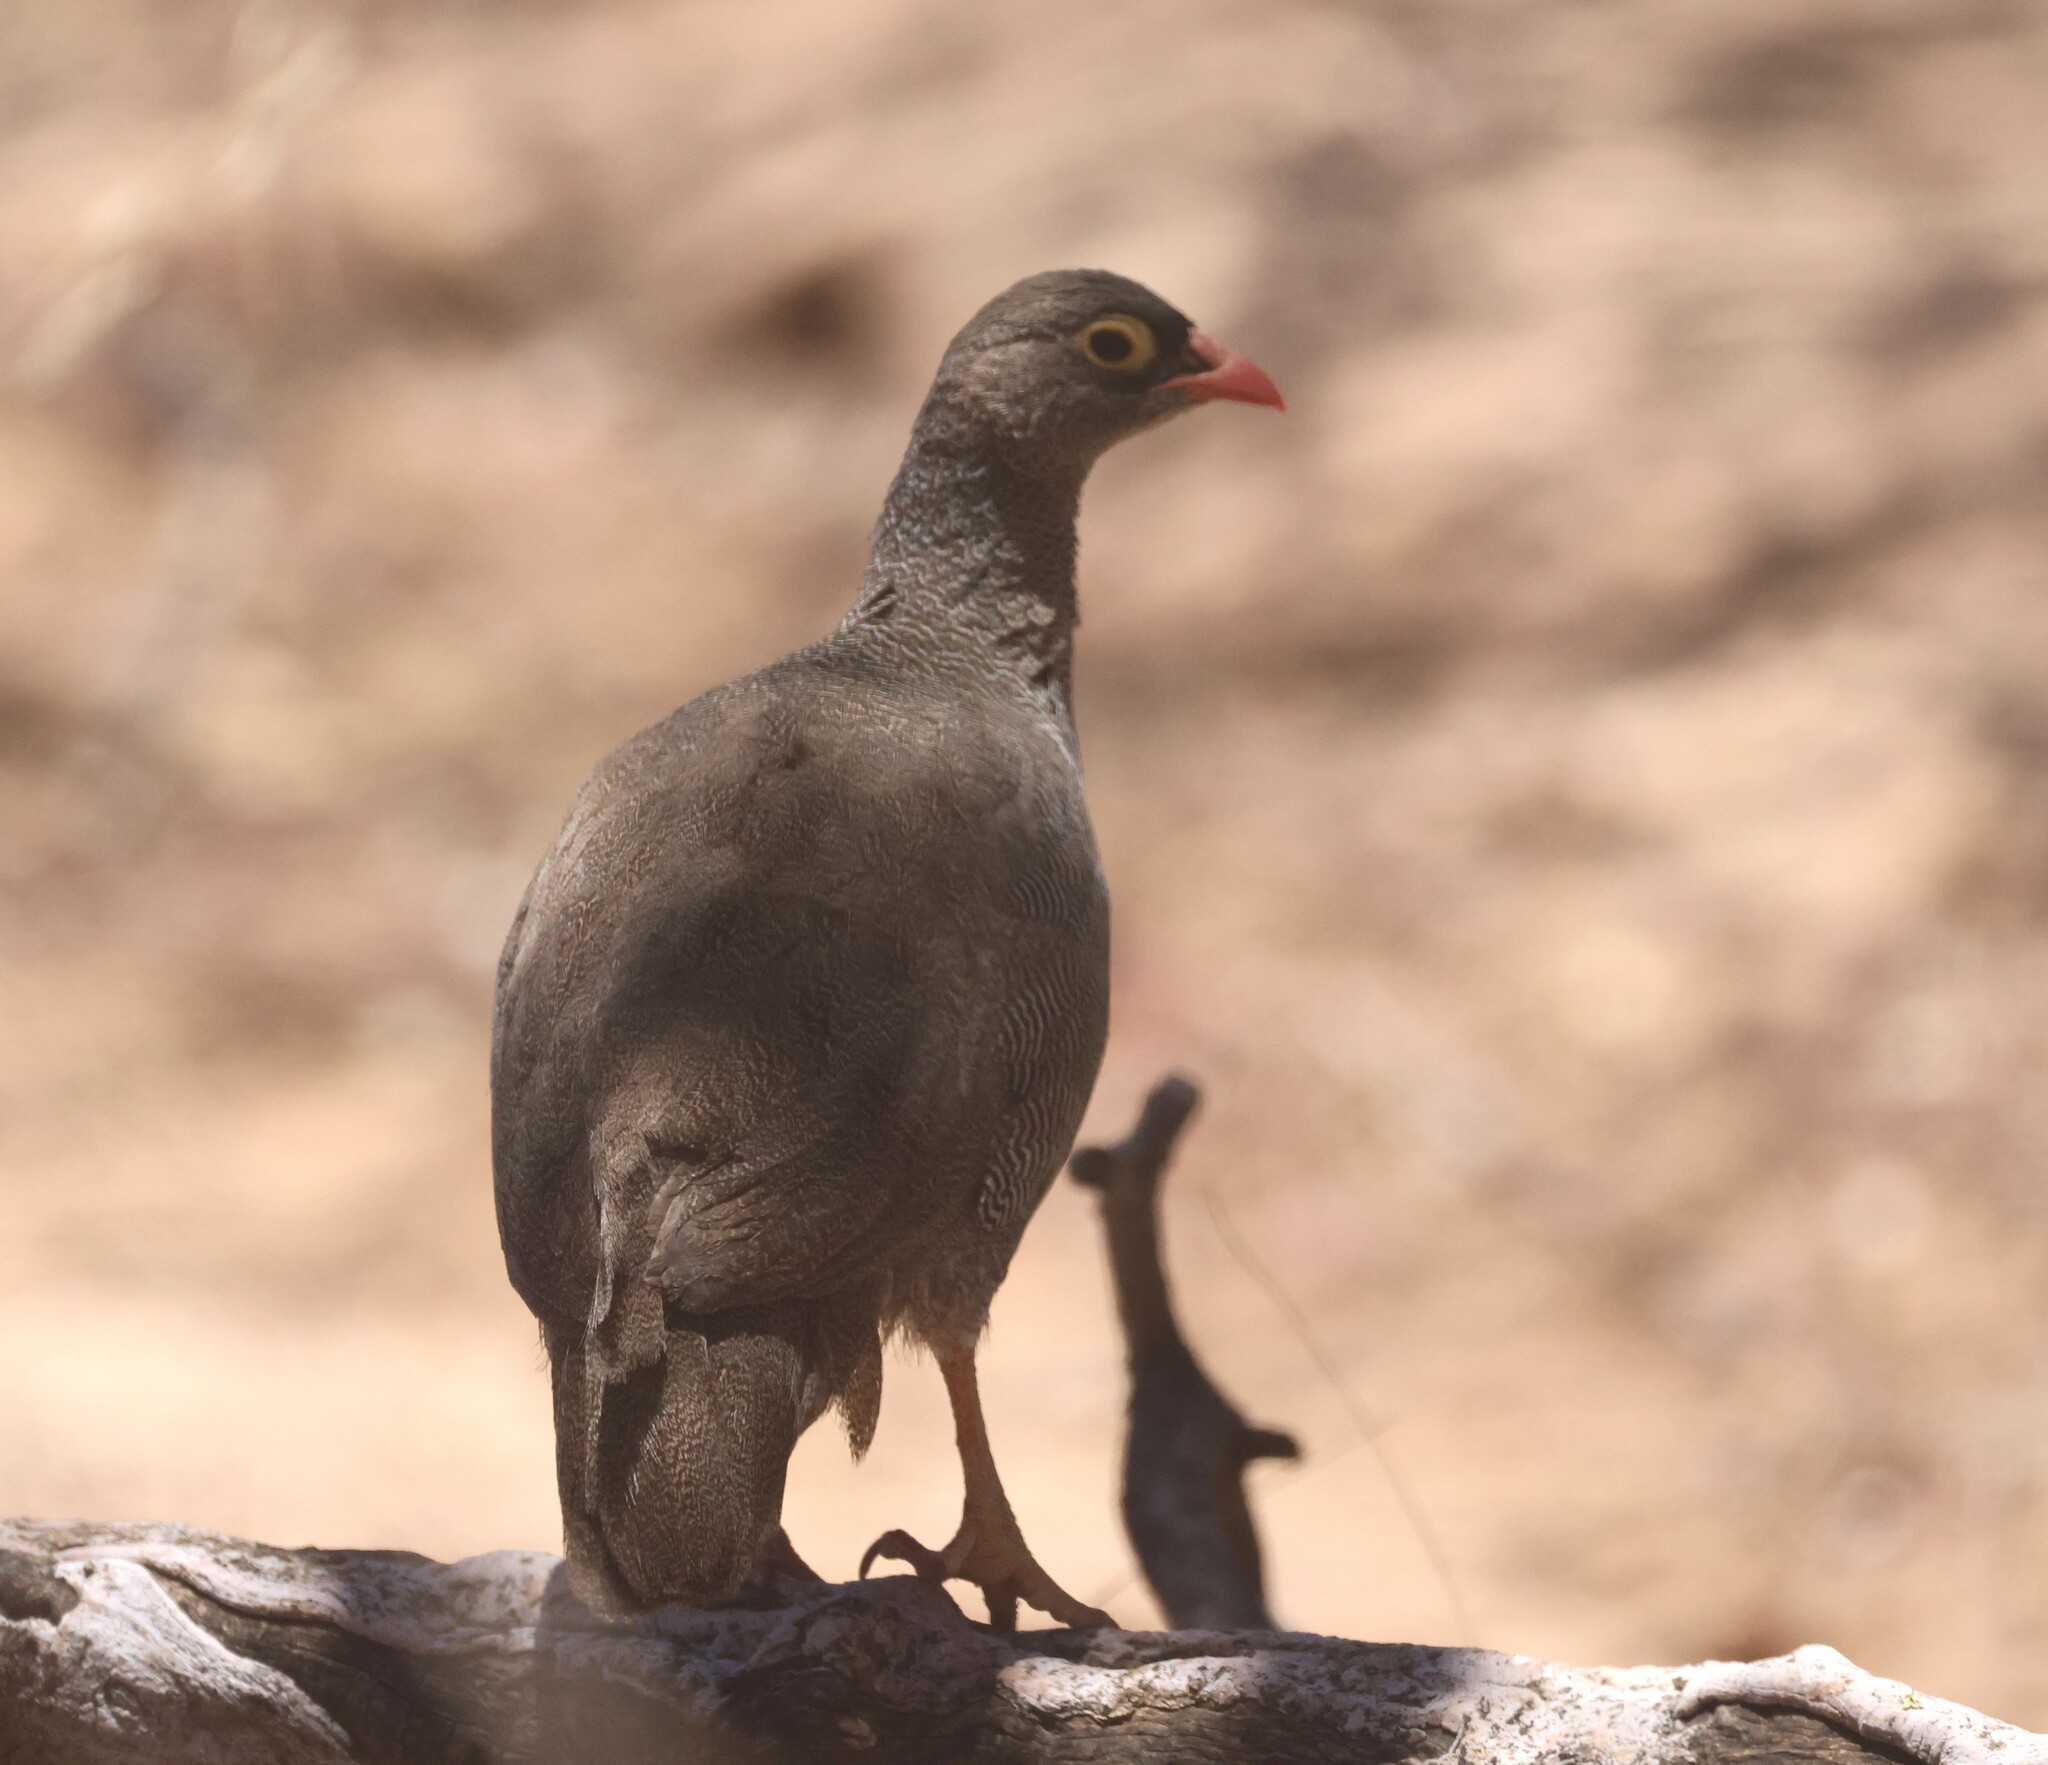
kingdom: Animalia
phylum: Chordata
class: Aves
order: Galliformes
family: Phasianidae
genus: Pternistis
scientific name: Pternistis adspersus
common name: Red-billed spurfowl
